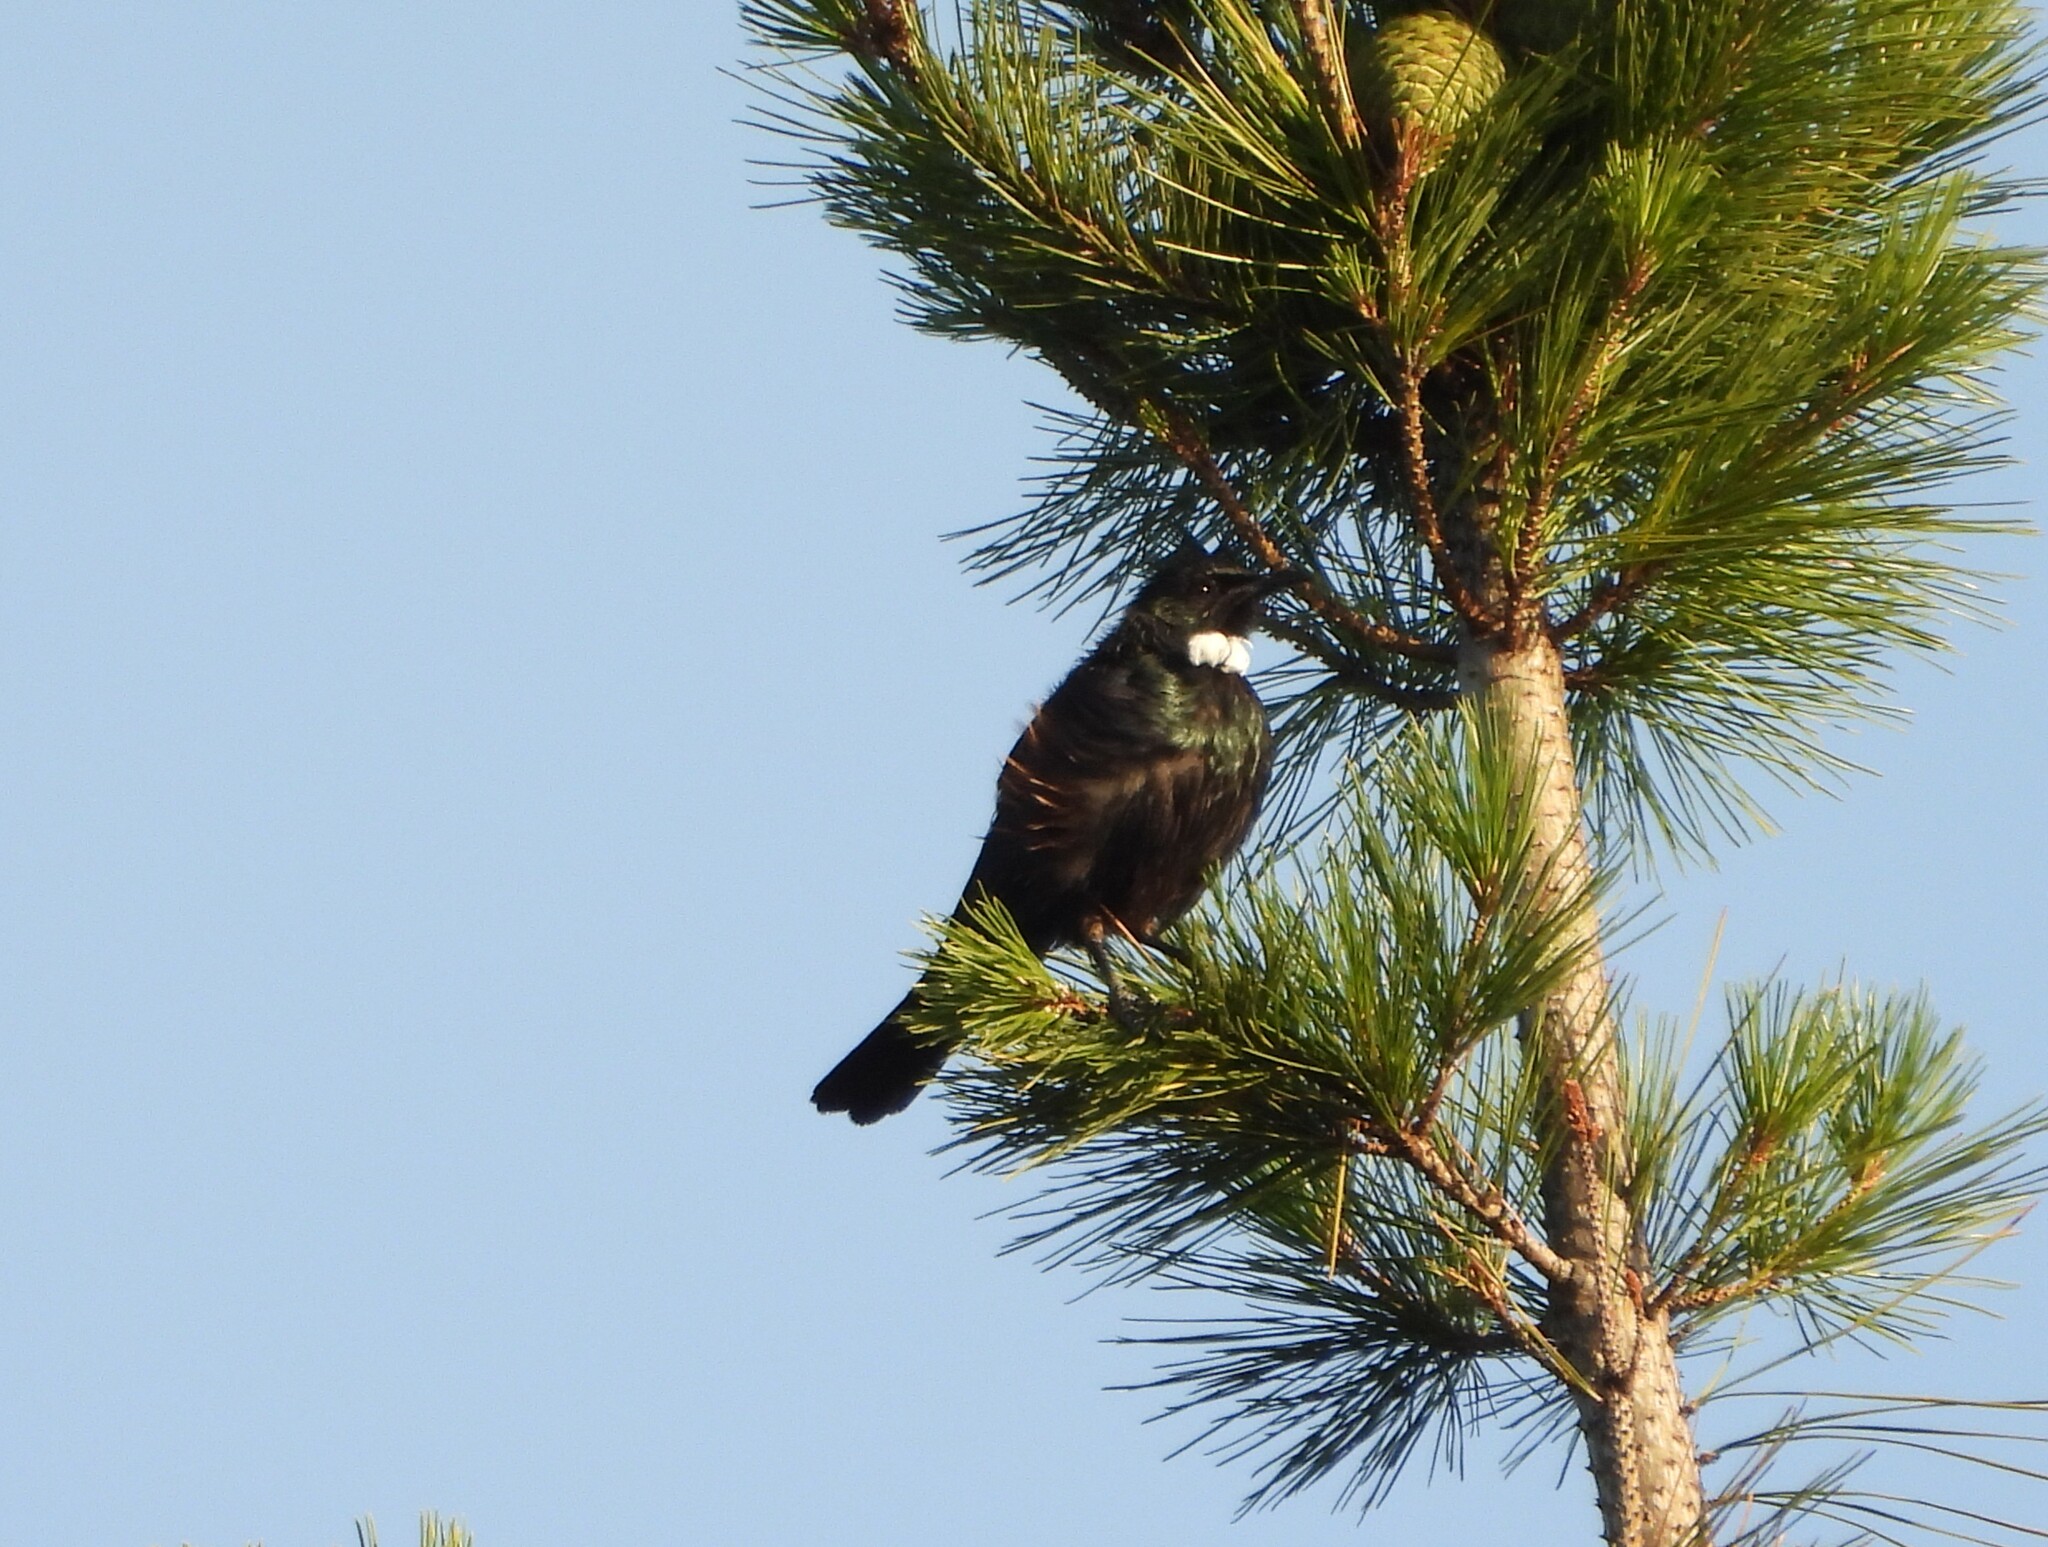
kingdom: Animalia
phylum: Chordata
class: Aves
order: Passeriformes
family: Meliphagidae
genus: Prosthemadera
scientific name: Prosthemadera novaeseelandiae
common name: Tui
